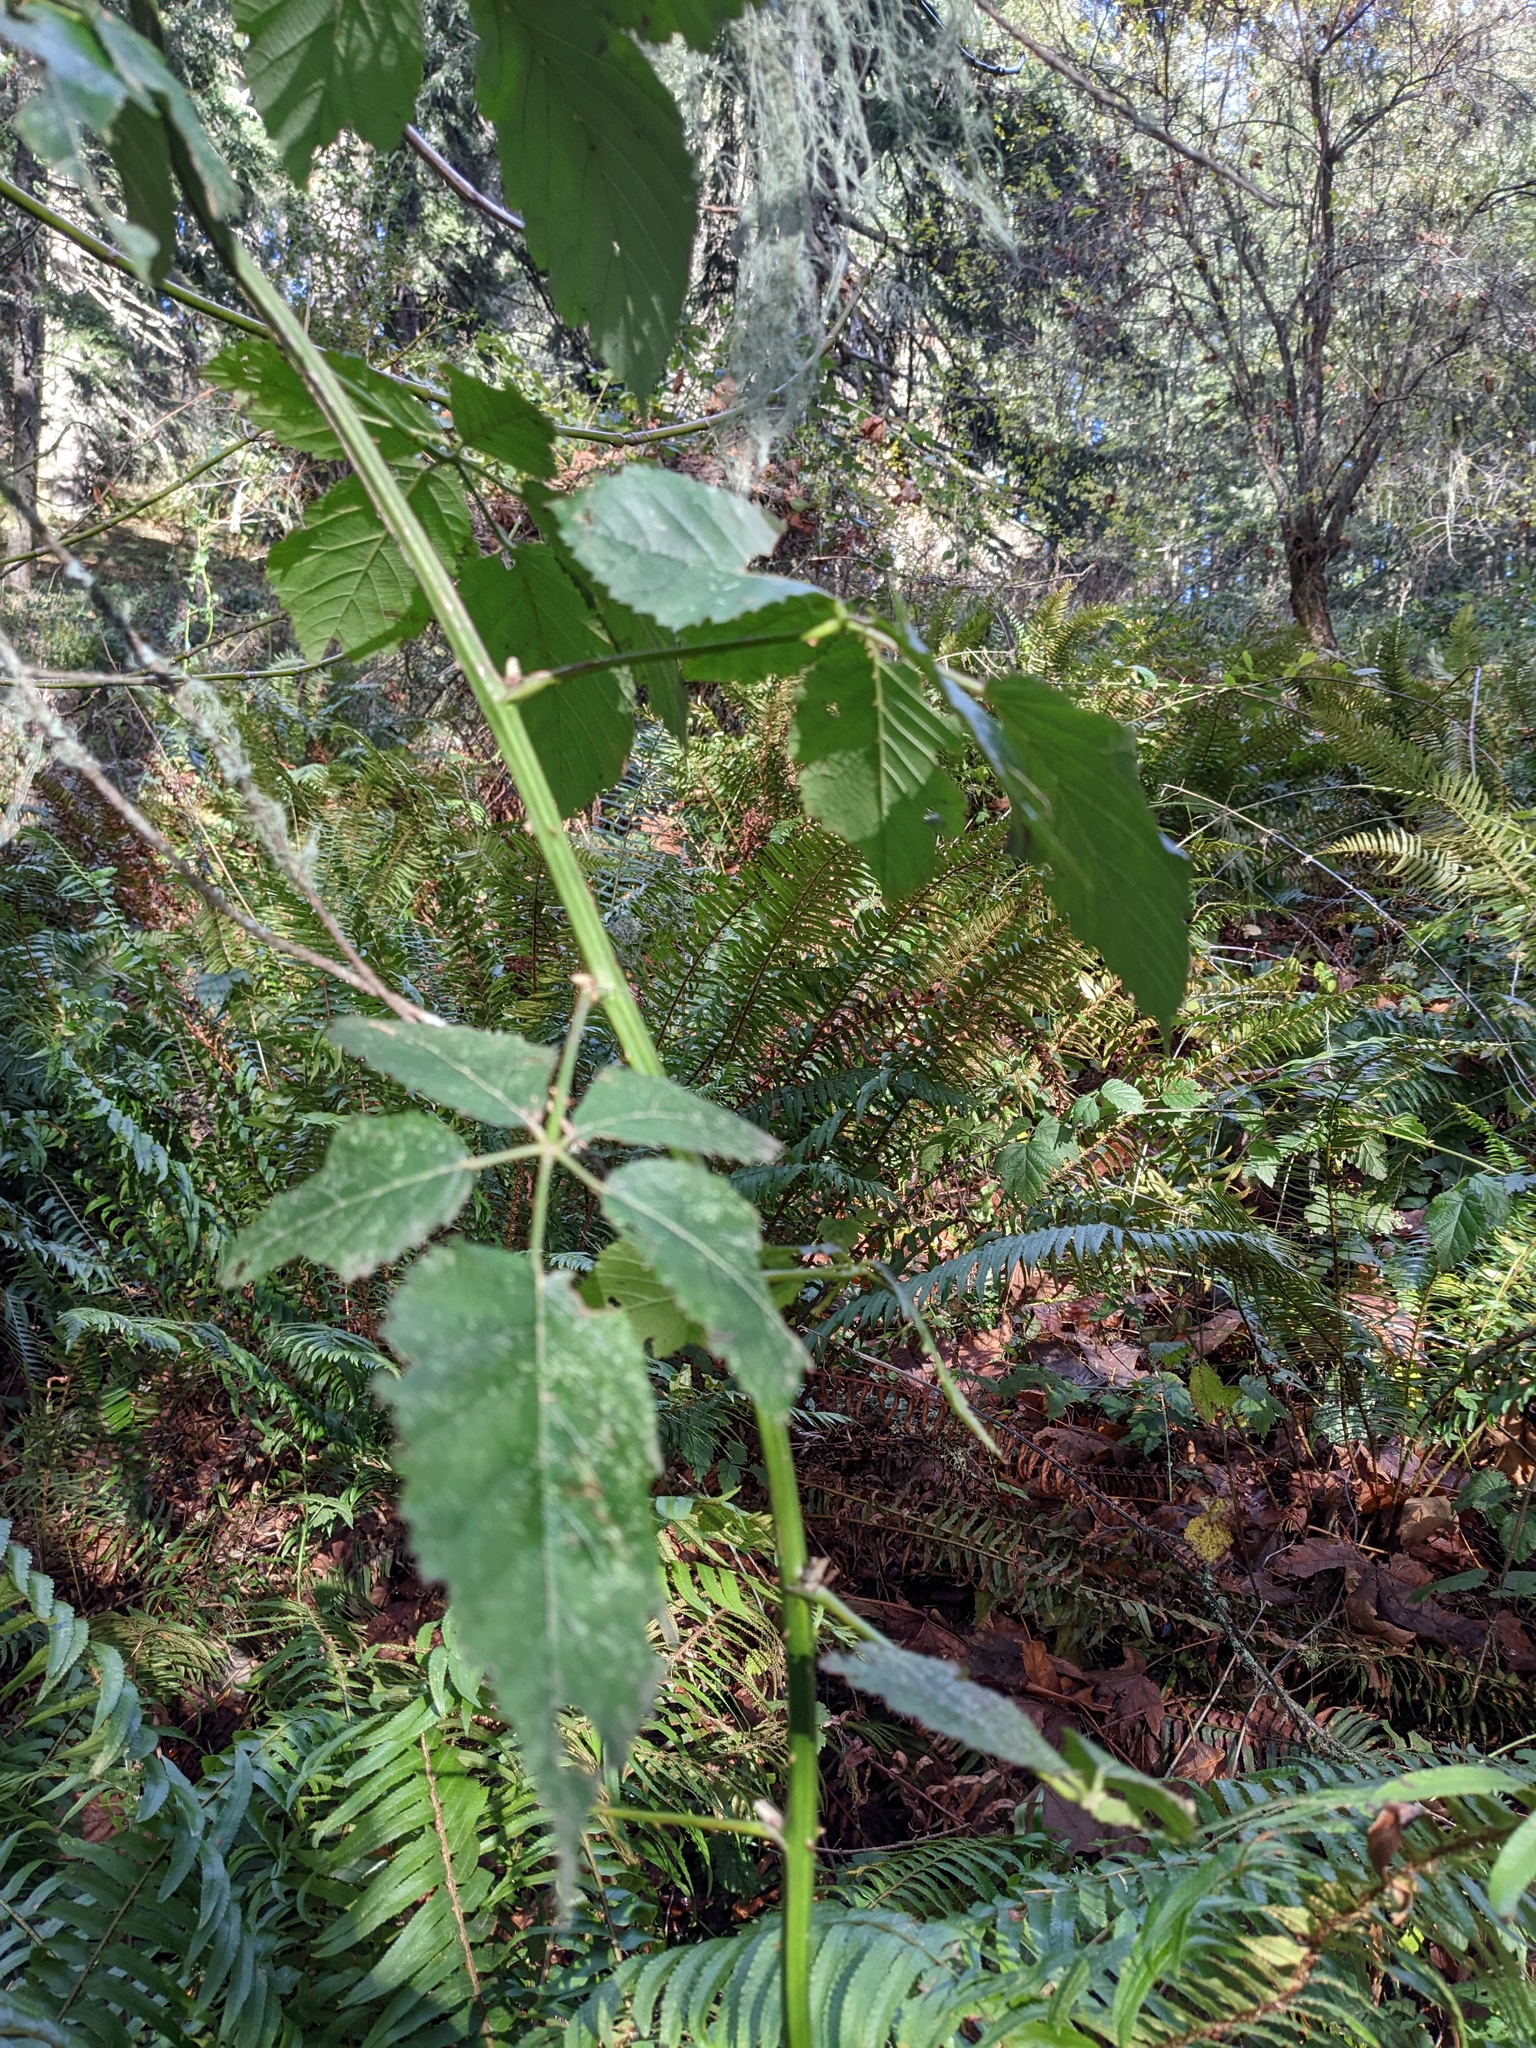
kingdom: Plantae
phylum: Tracheophyta
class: Magnoliopsida
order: Rosales
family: Rosaceae
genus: Rubus
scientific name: Rubus armeniacus
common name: Himalayan blackberry
